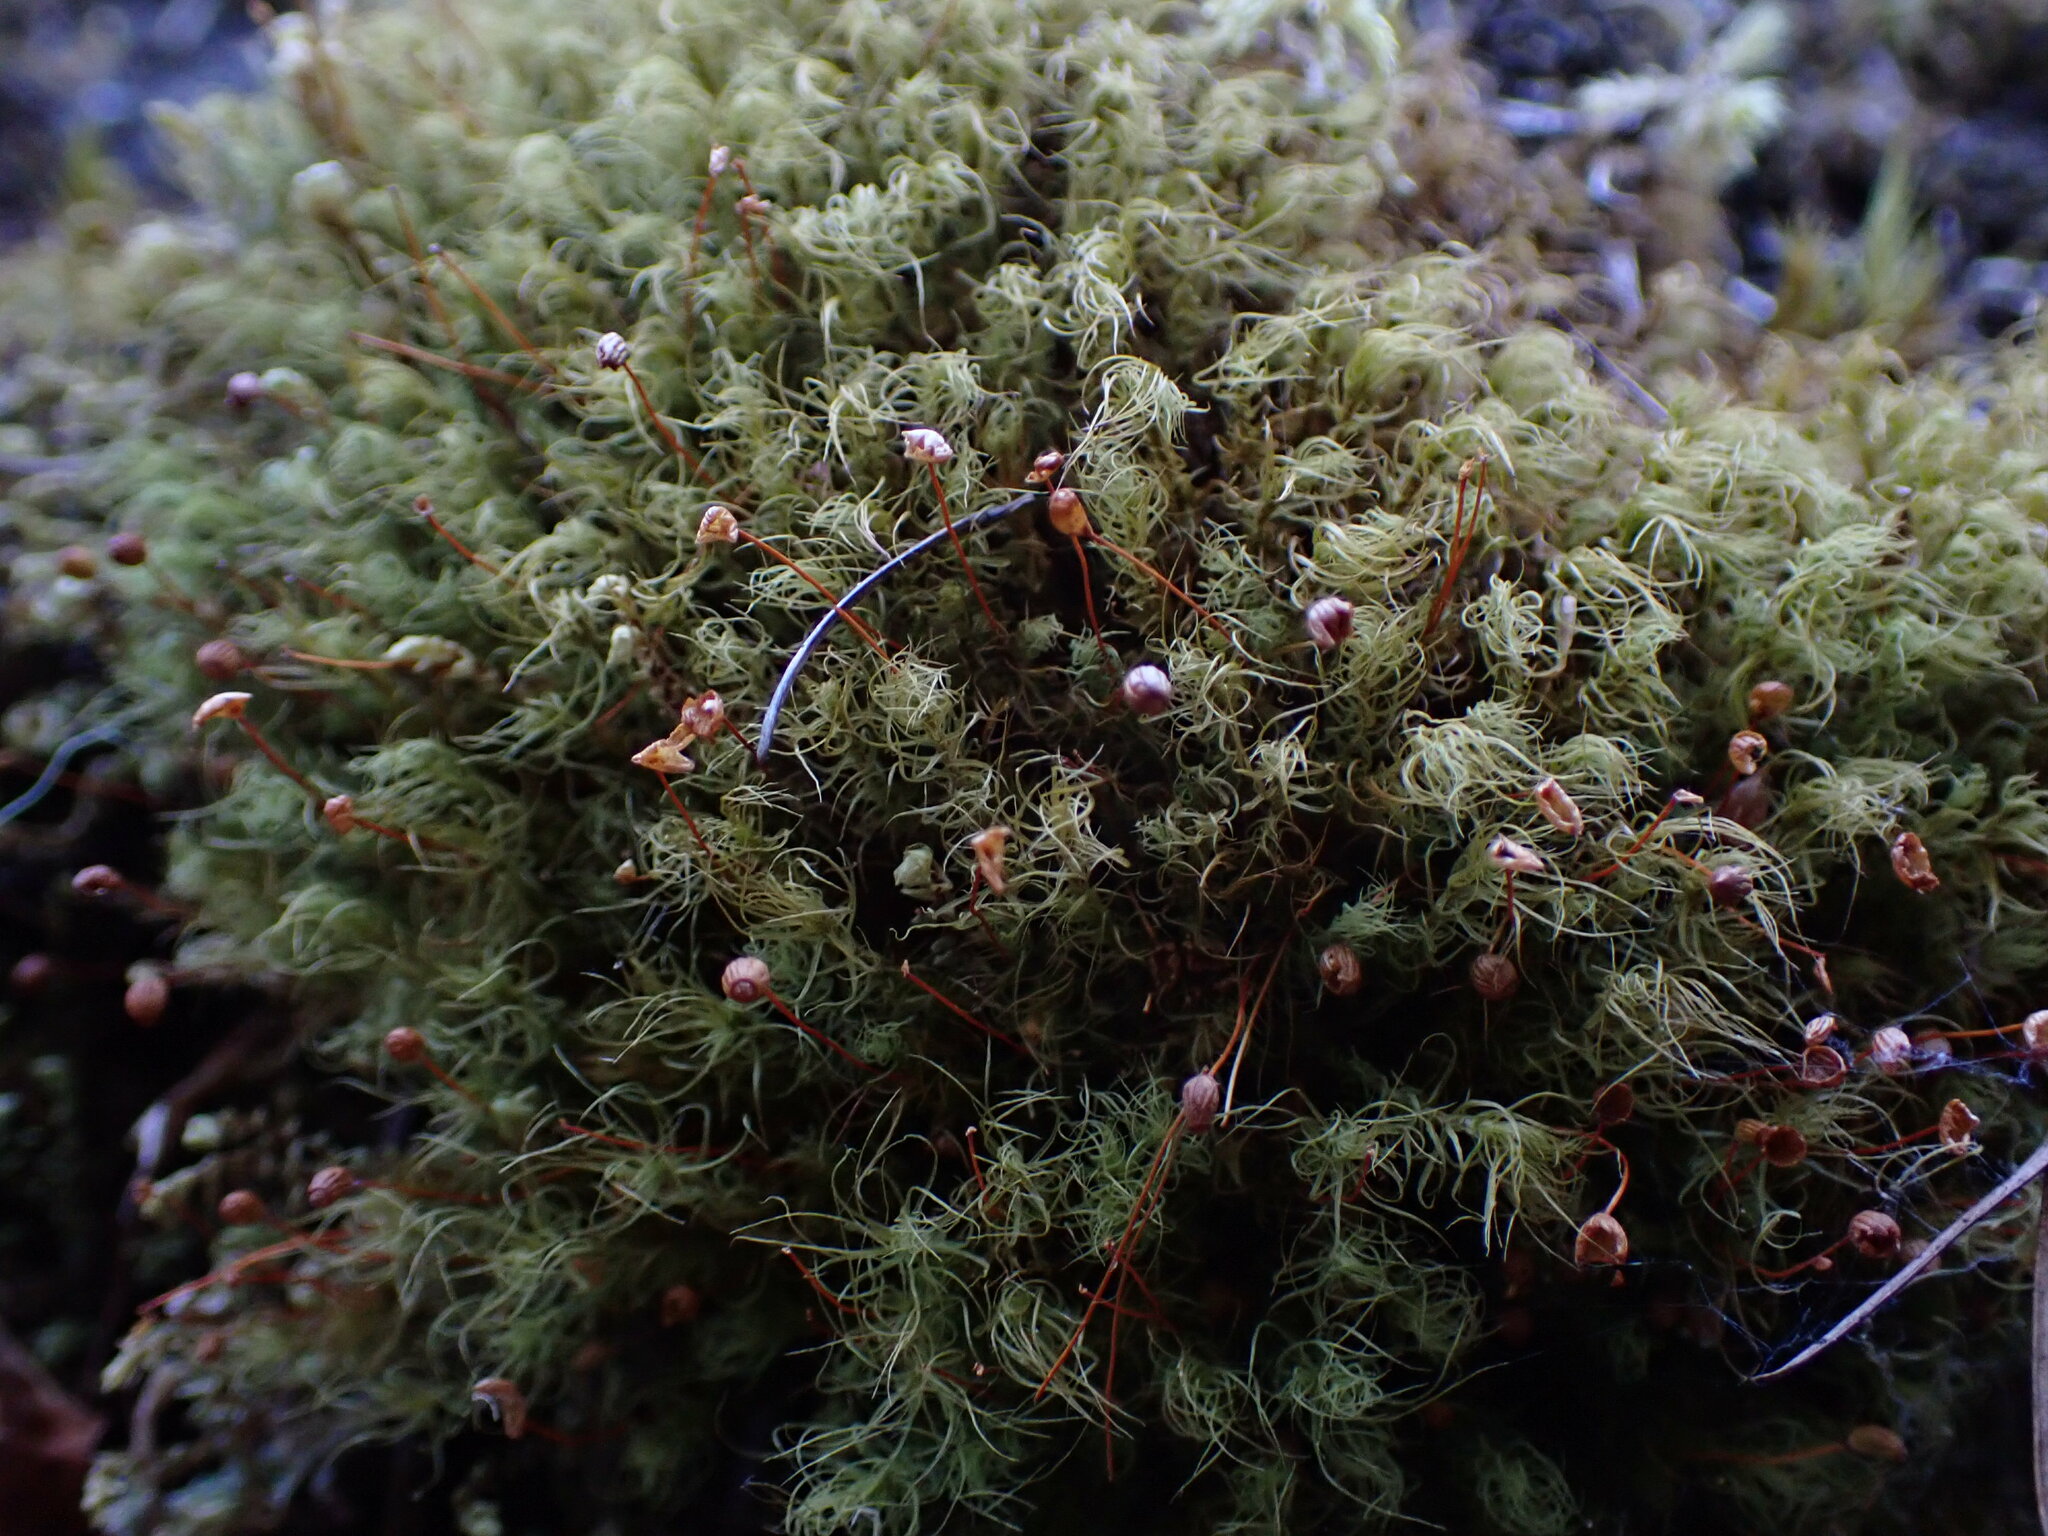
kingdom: Plantae
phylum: Bryophyta
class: Bryopsida
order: Bartramiales
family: Bartramiaceae
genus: Bartramia
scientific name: Bartramia ithyphylla
